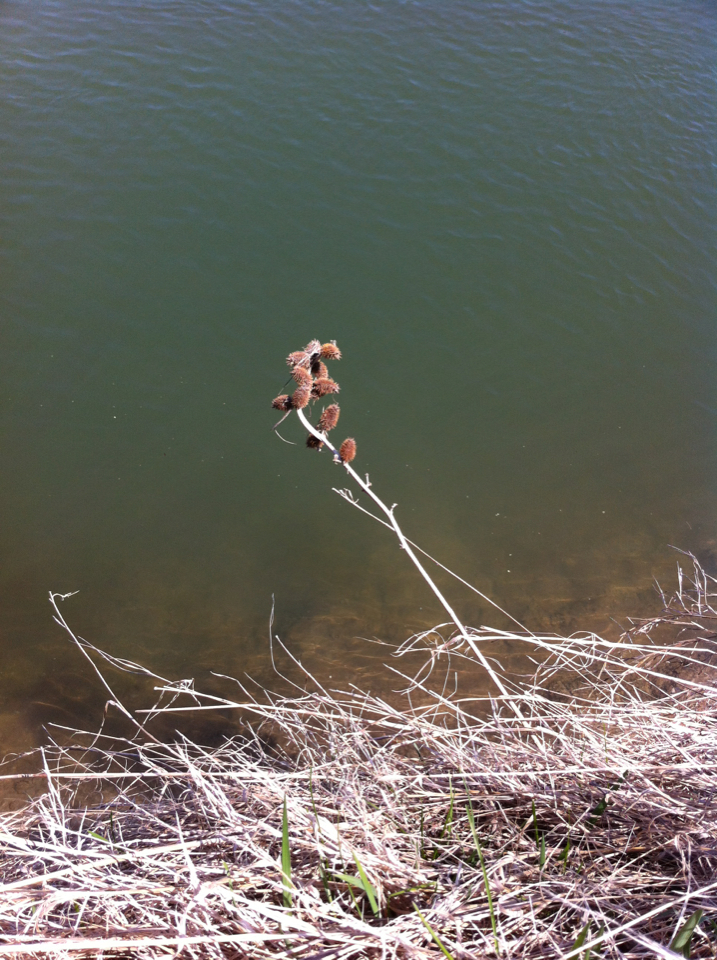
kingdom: Plantae
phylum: Tracheophyta
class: Magnoliopsida
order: Asterales
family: Asteraceae
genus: Xanthium
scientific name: Xanthium strumarium
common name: Rough cocklebur
